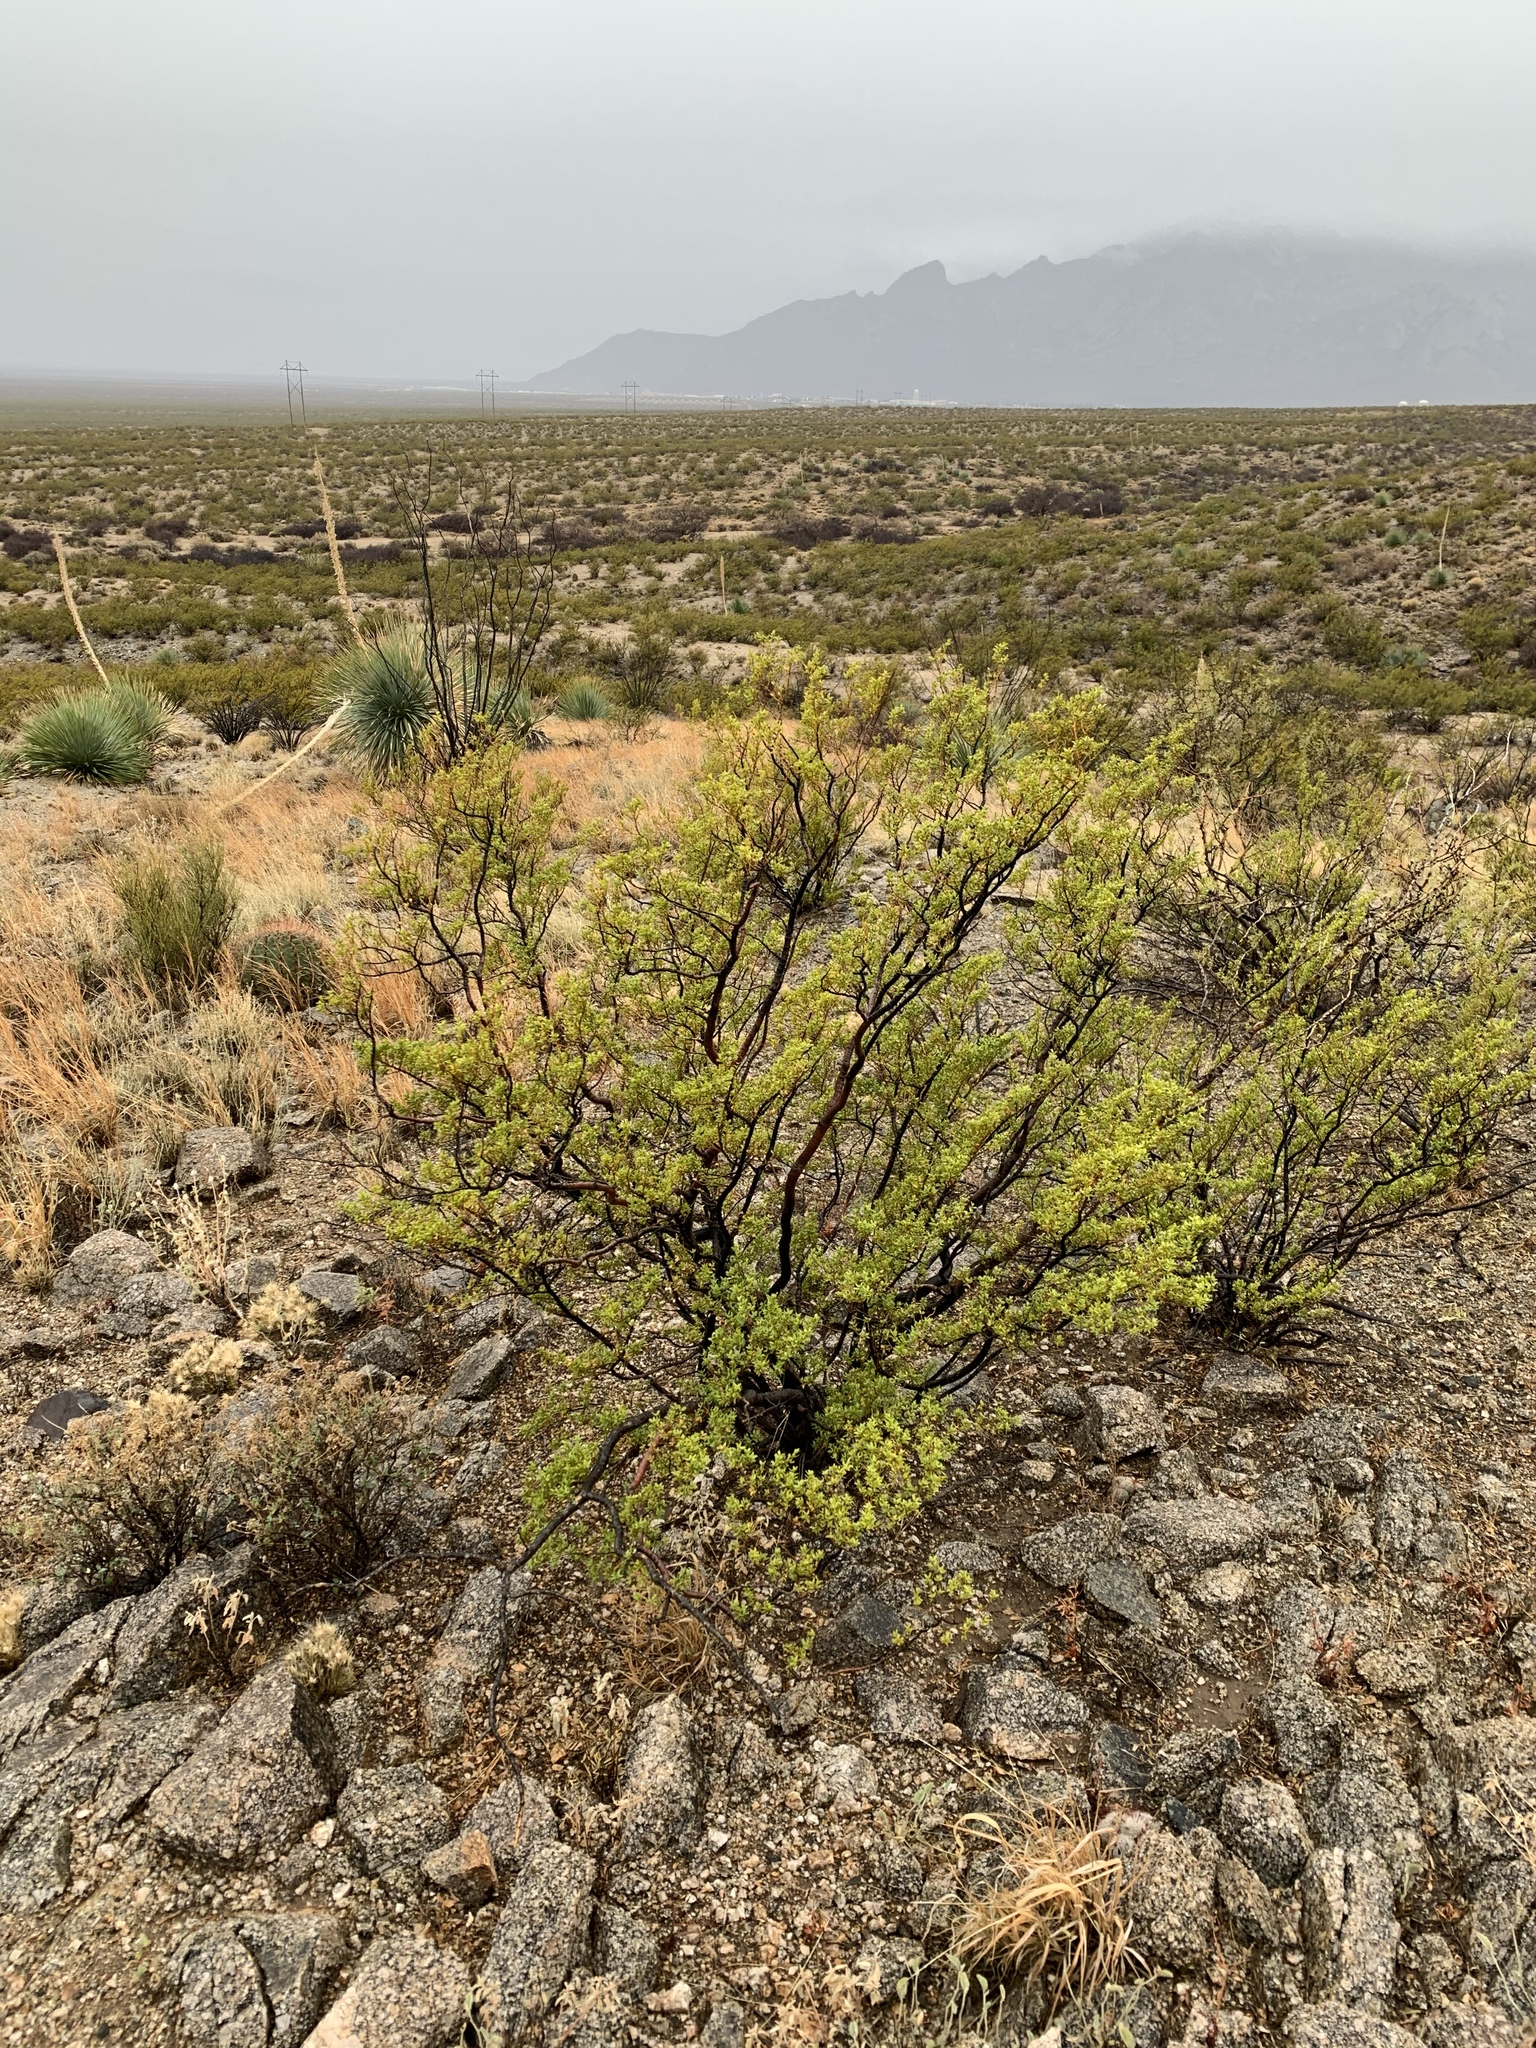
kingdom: Plantae
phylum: Tracheophyta
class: Magnoliopsida
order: Zygophyllales
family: Zygophyllaceae
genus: Larrea
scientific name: Larrea tridentata
